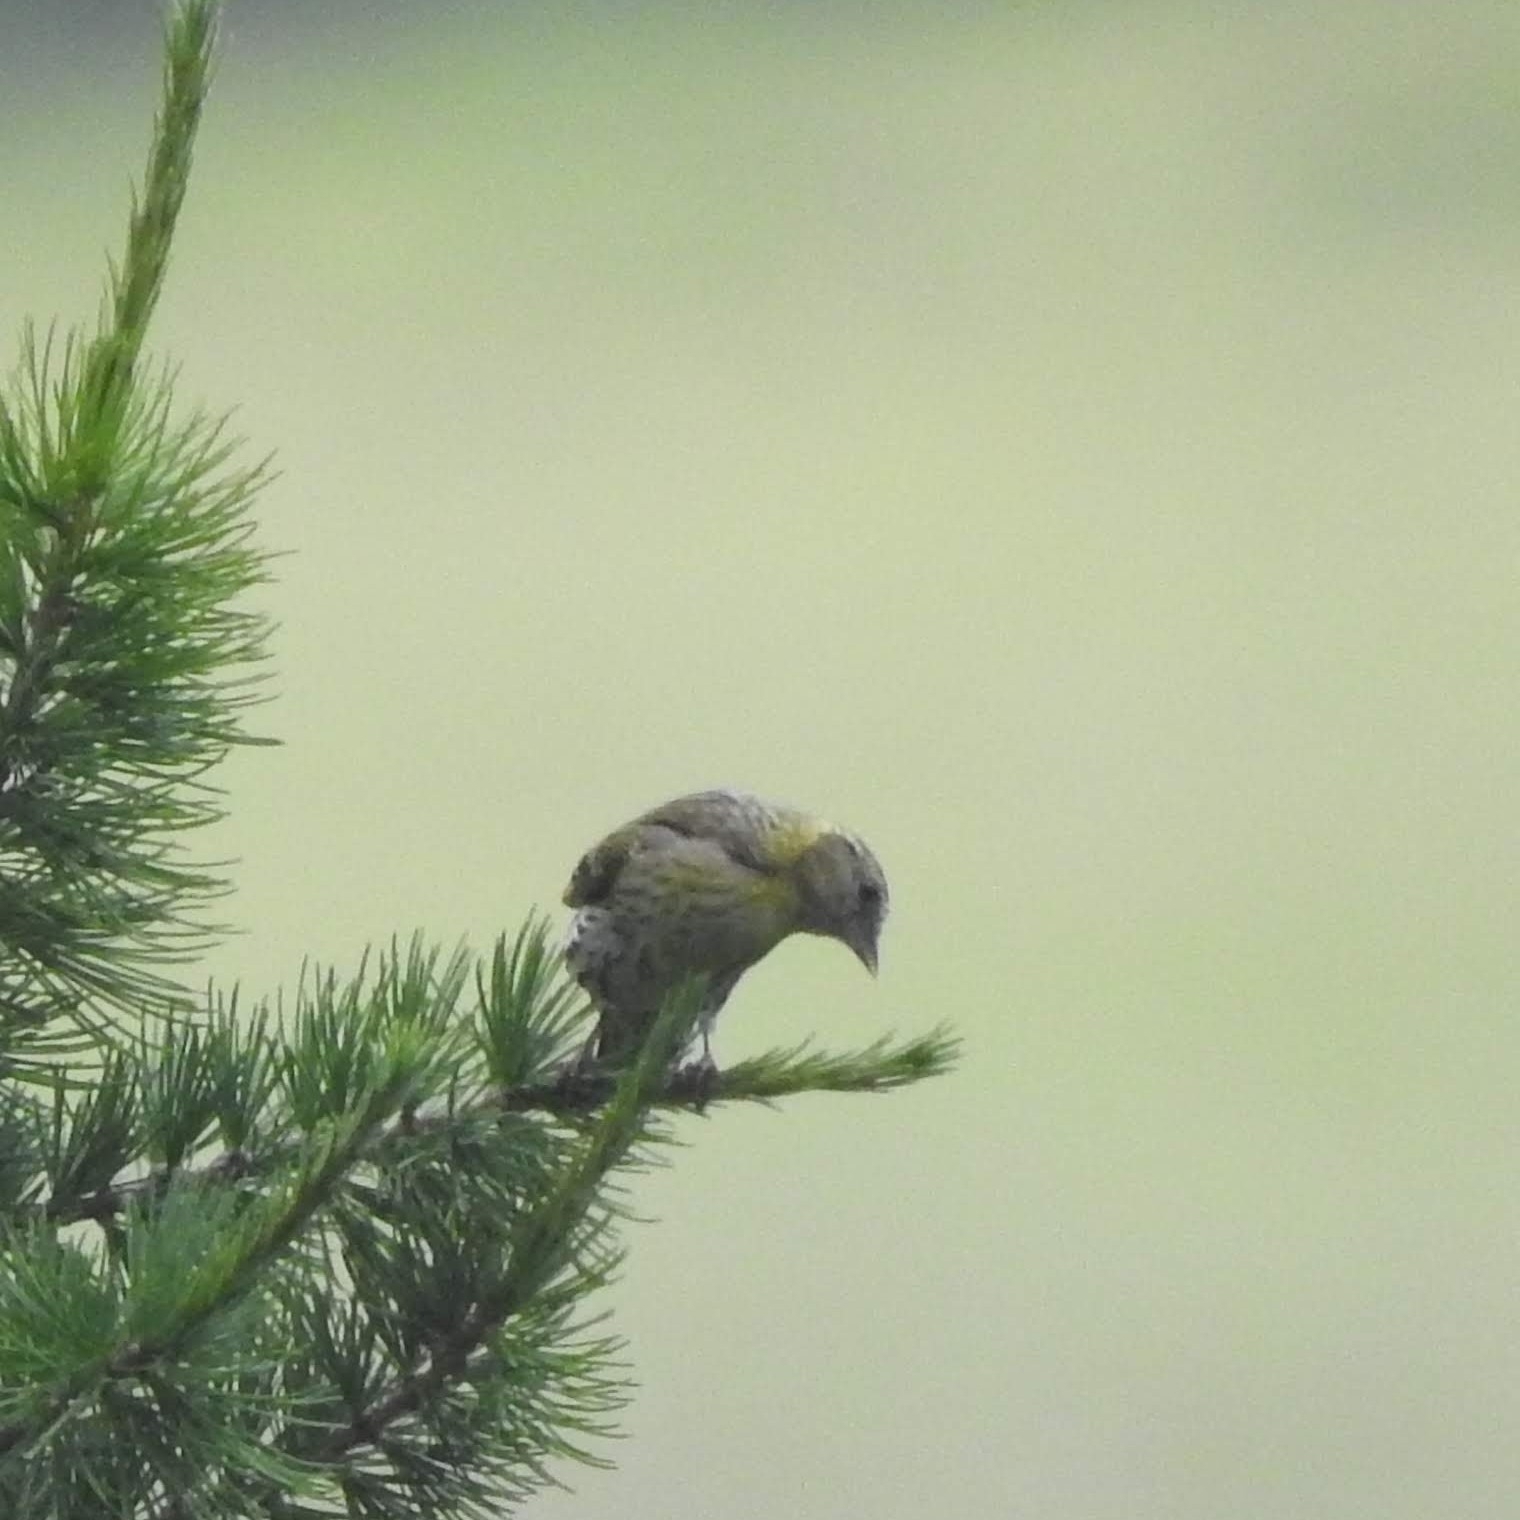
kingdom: Animalia
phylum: Chordata
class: Aves
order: Passeriformes
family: Fringillidae
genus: Spinus
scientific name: Spinus spinus
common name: Eurasian siskin
